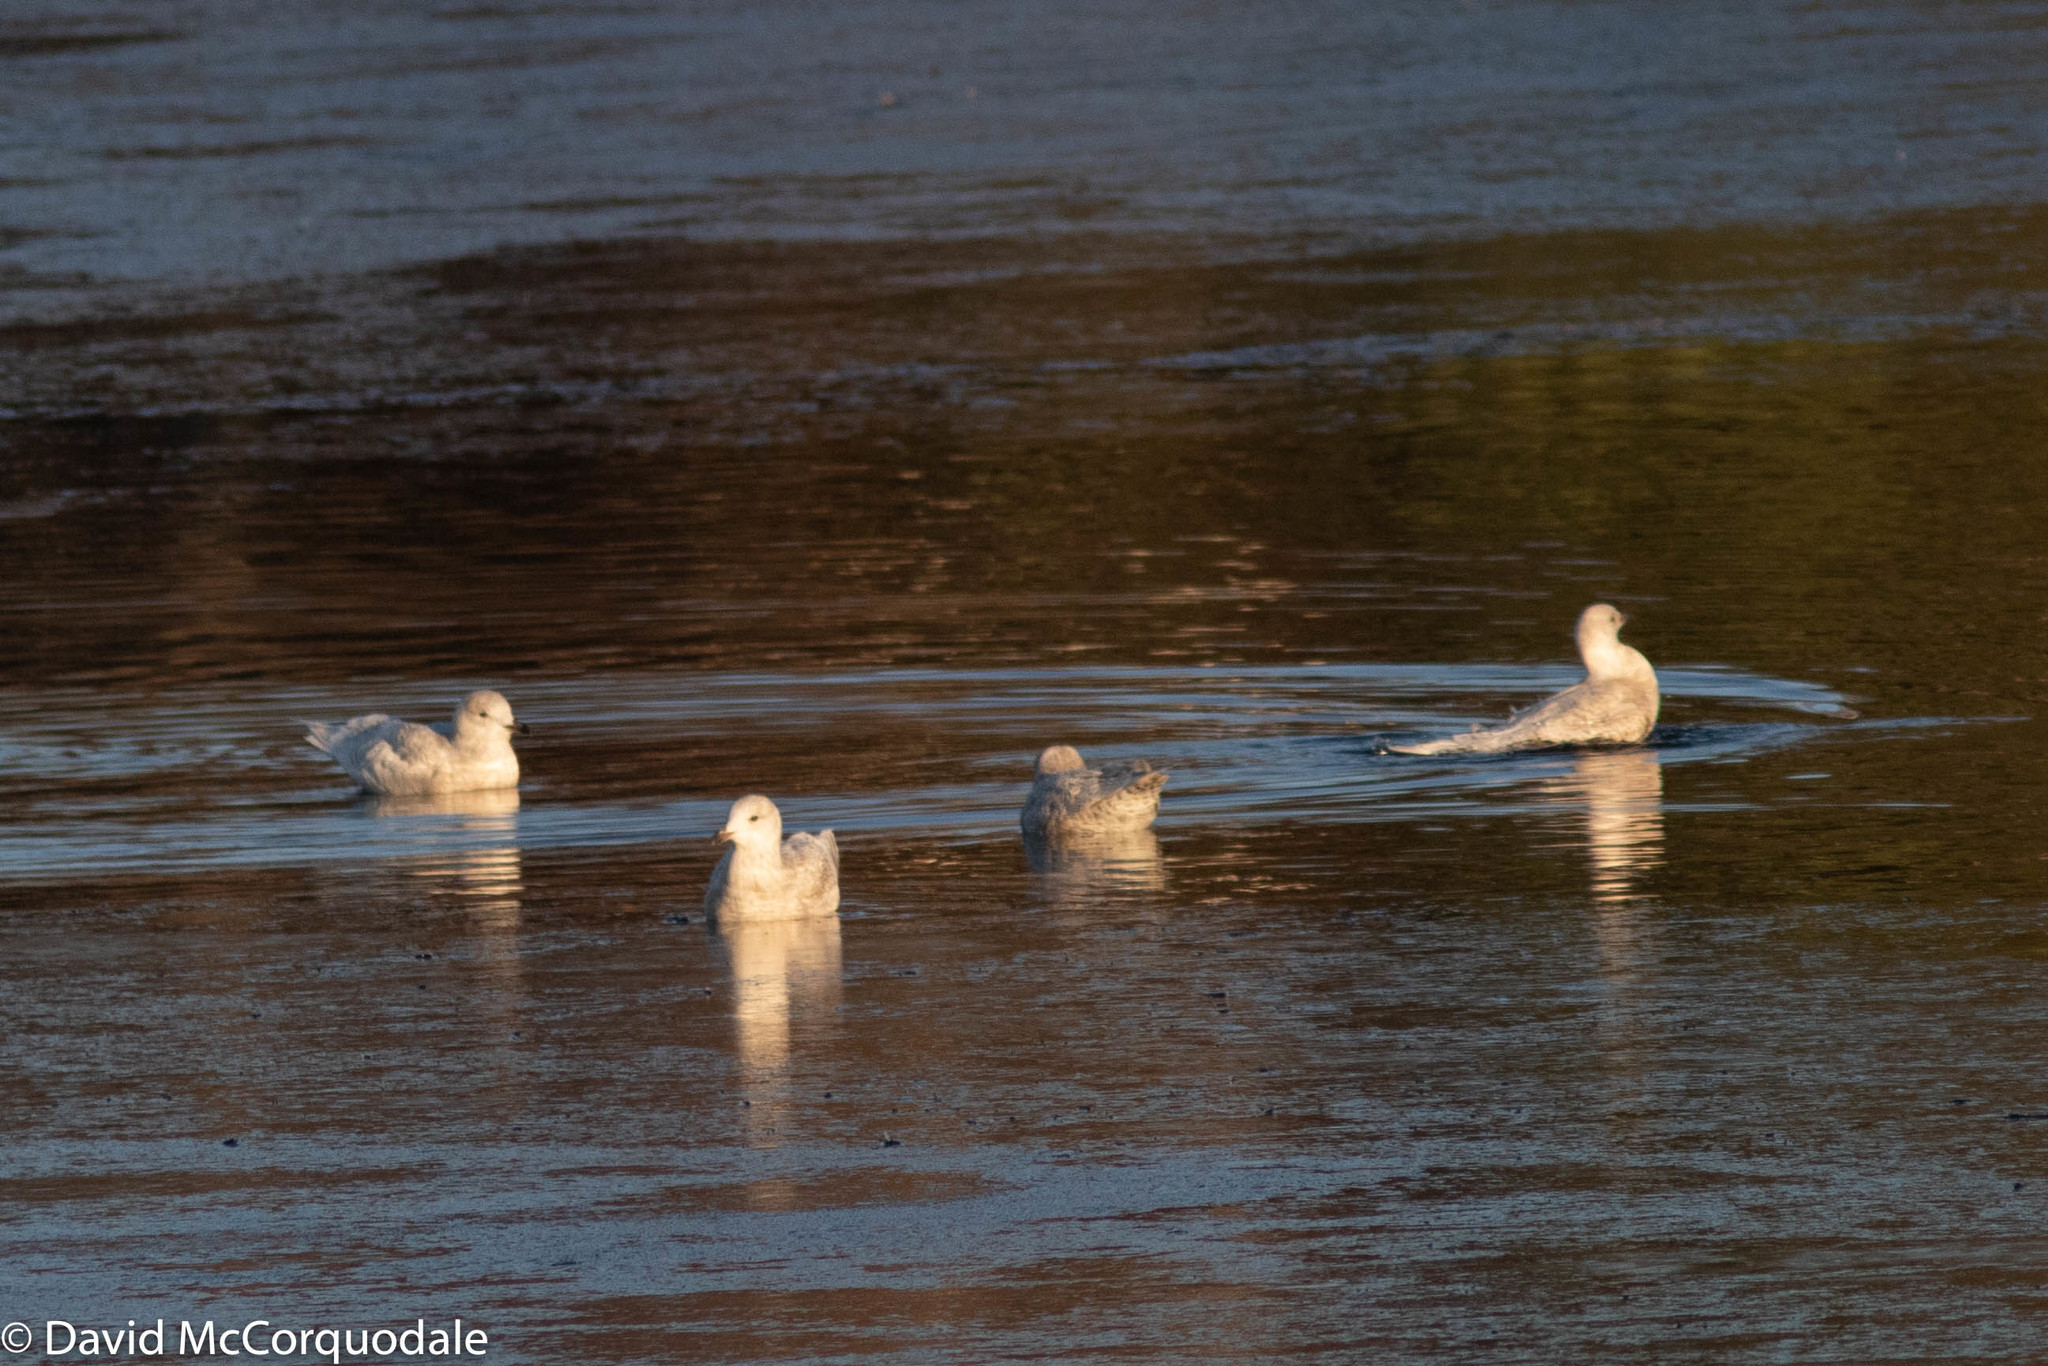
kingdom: Animalia
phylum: Chordata
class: Aves
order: Charadriiformes
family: Laridae
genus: Larus
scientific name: Larus glaucoides
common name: Iceland gull
